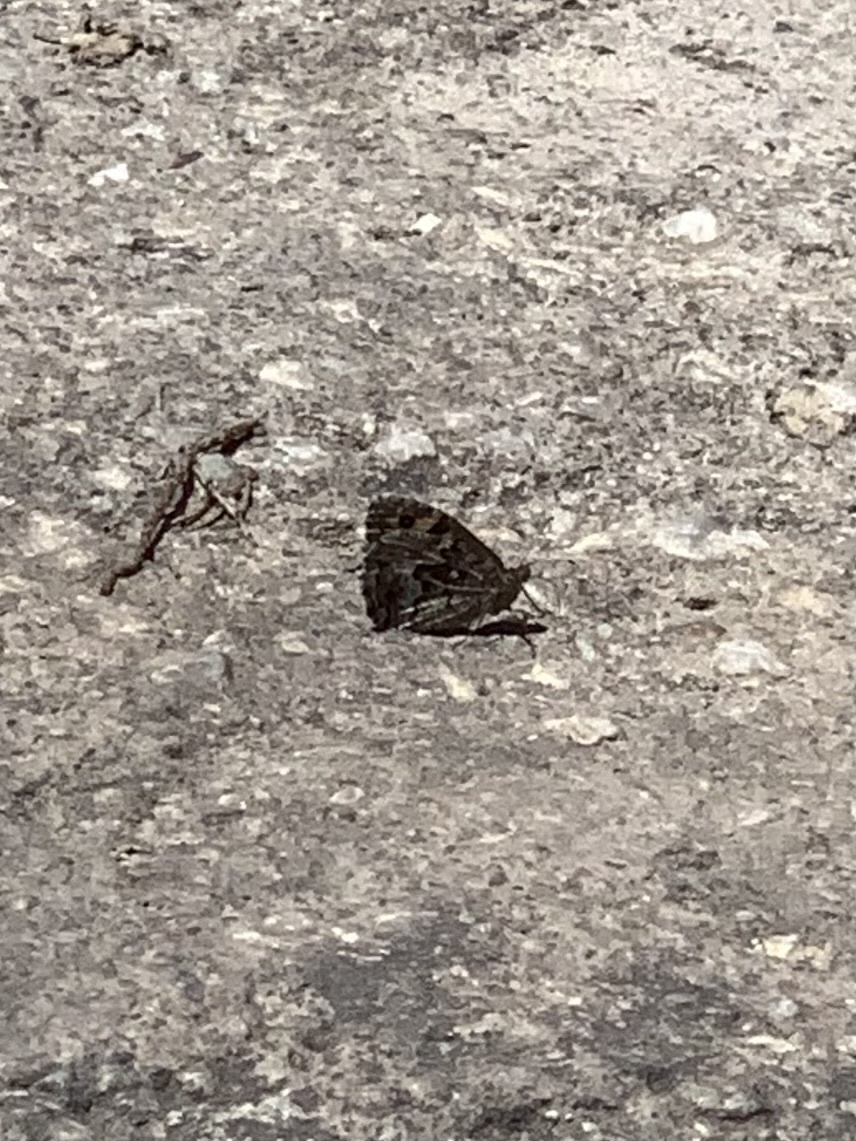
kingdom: Animalia
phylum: Arthropoda
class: Insecta
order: Lepidoptera
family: Nymphalidae
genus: Hipparchia
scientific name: Hipparchia cretica
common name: Cretan grayling
